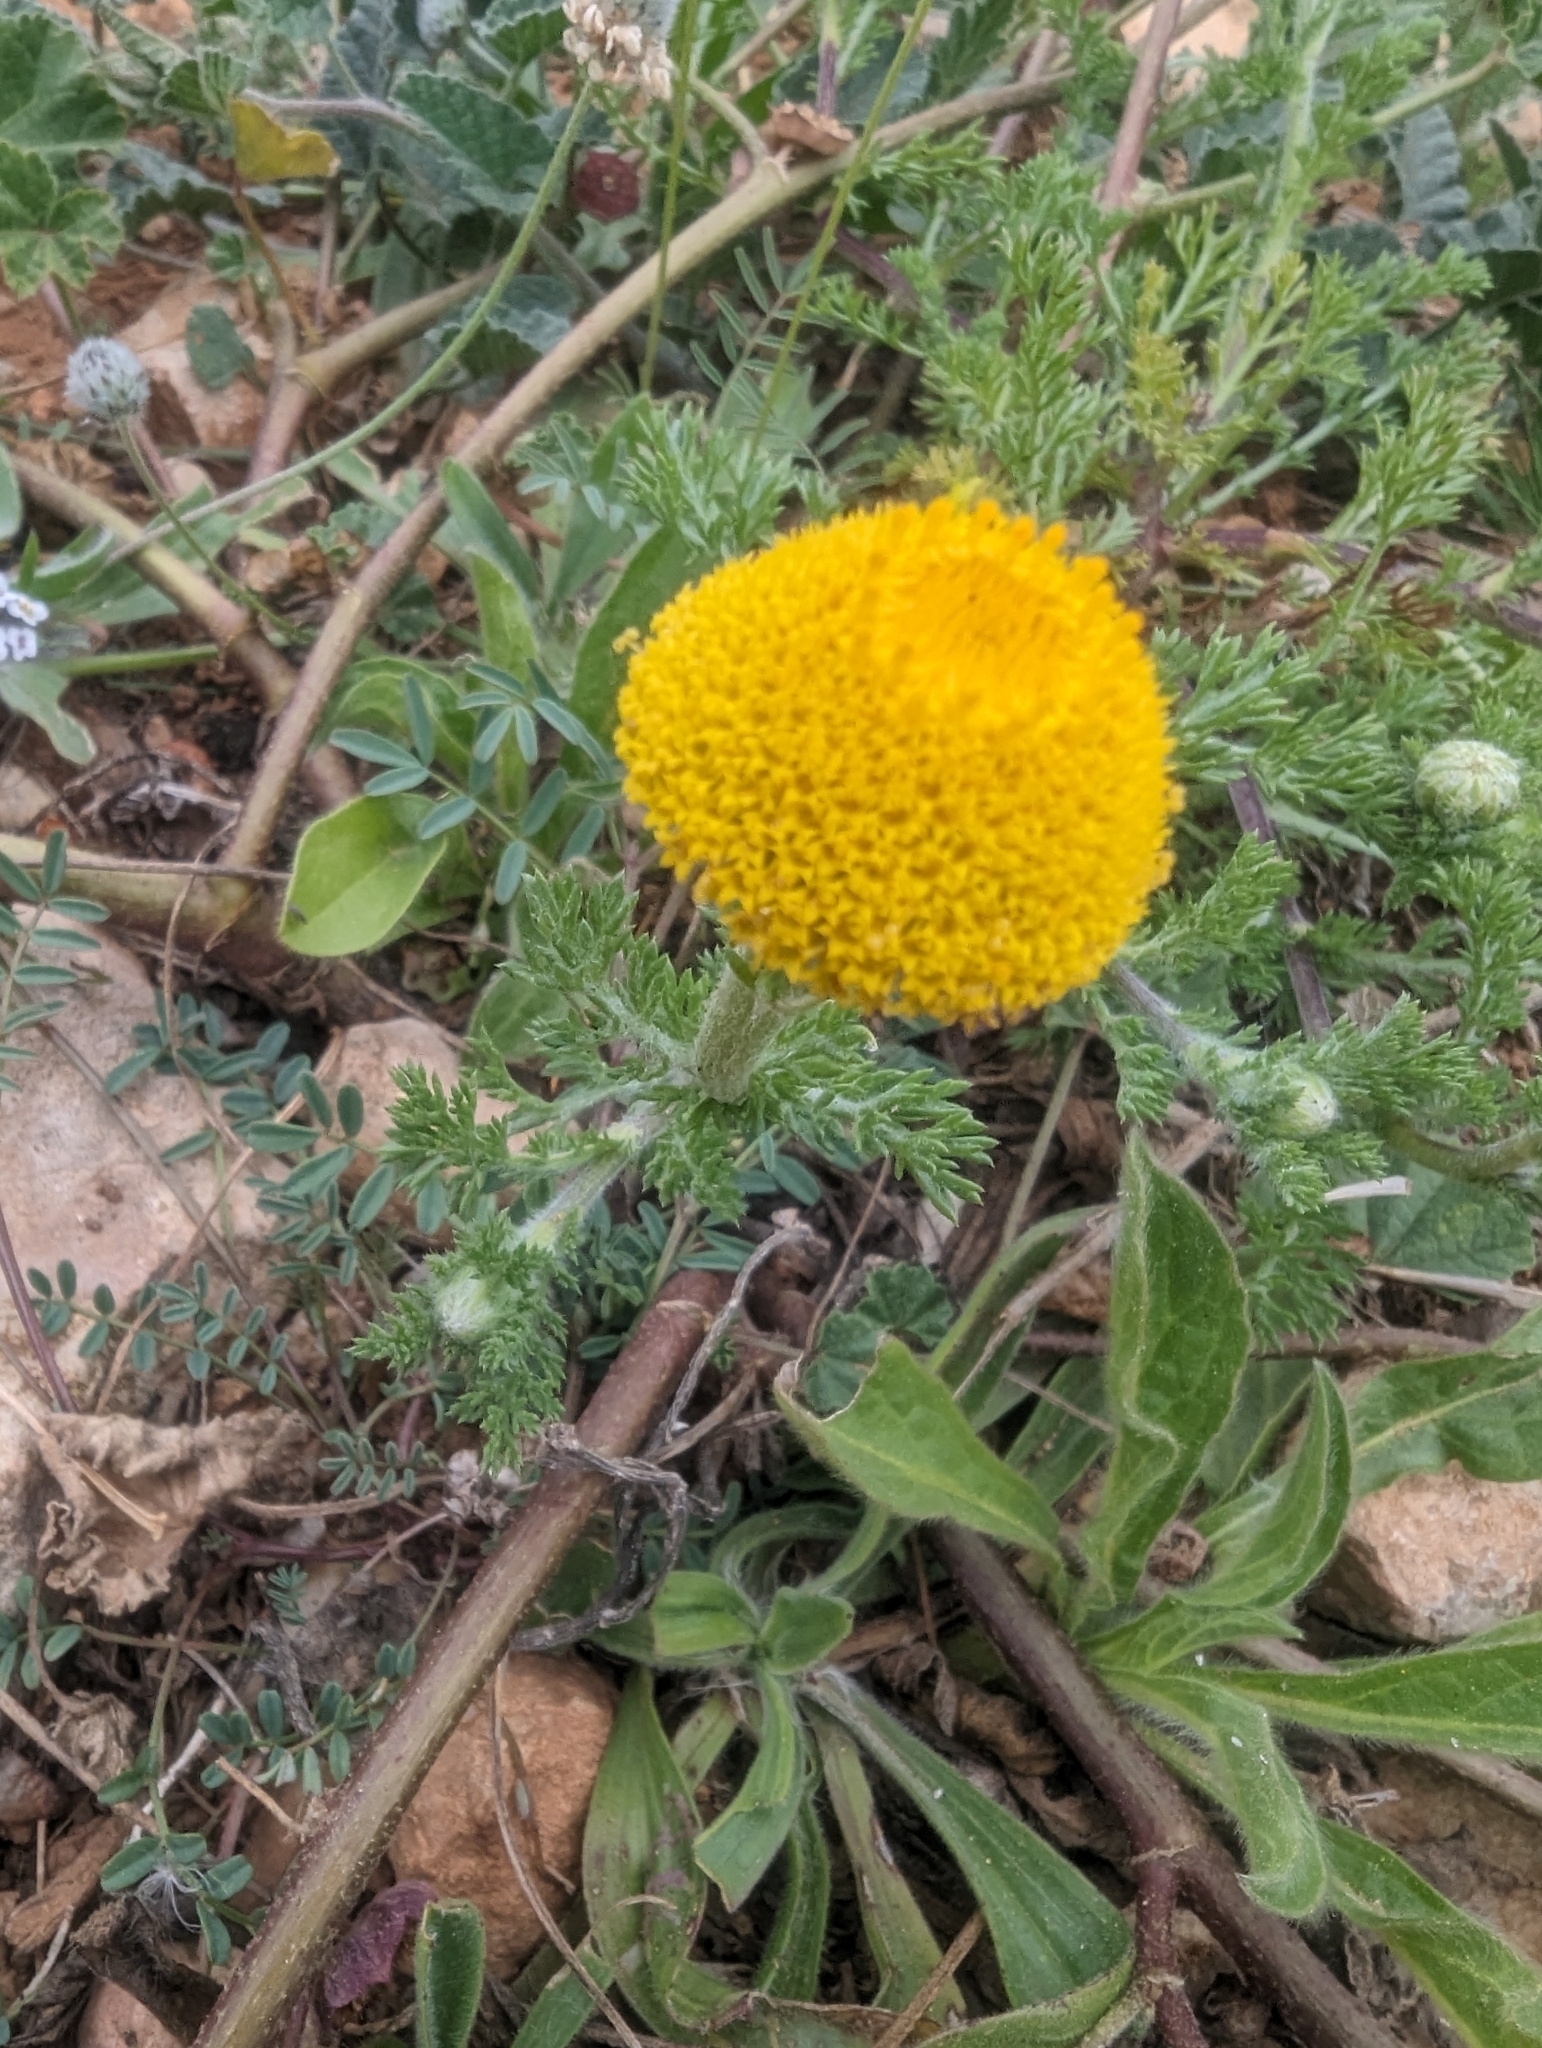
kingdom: Plantae
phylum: Tracheophyta
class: Magnoliopsida
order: Asterales
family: Asteraceae
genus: Anacyclus
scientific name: Anacyclus valentinus
